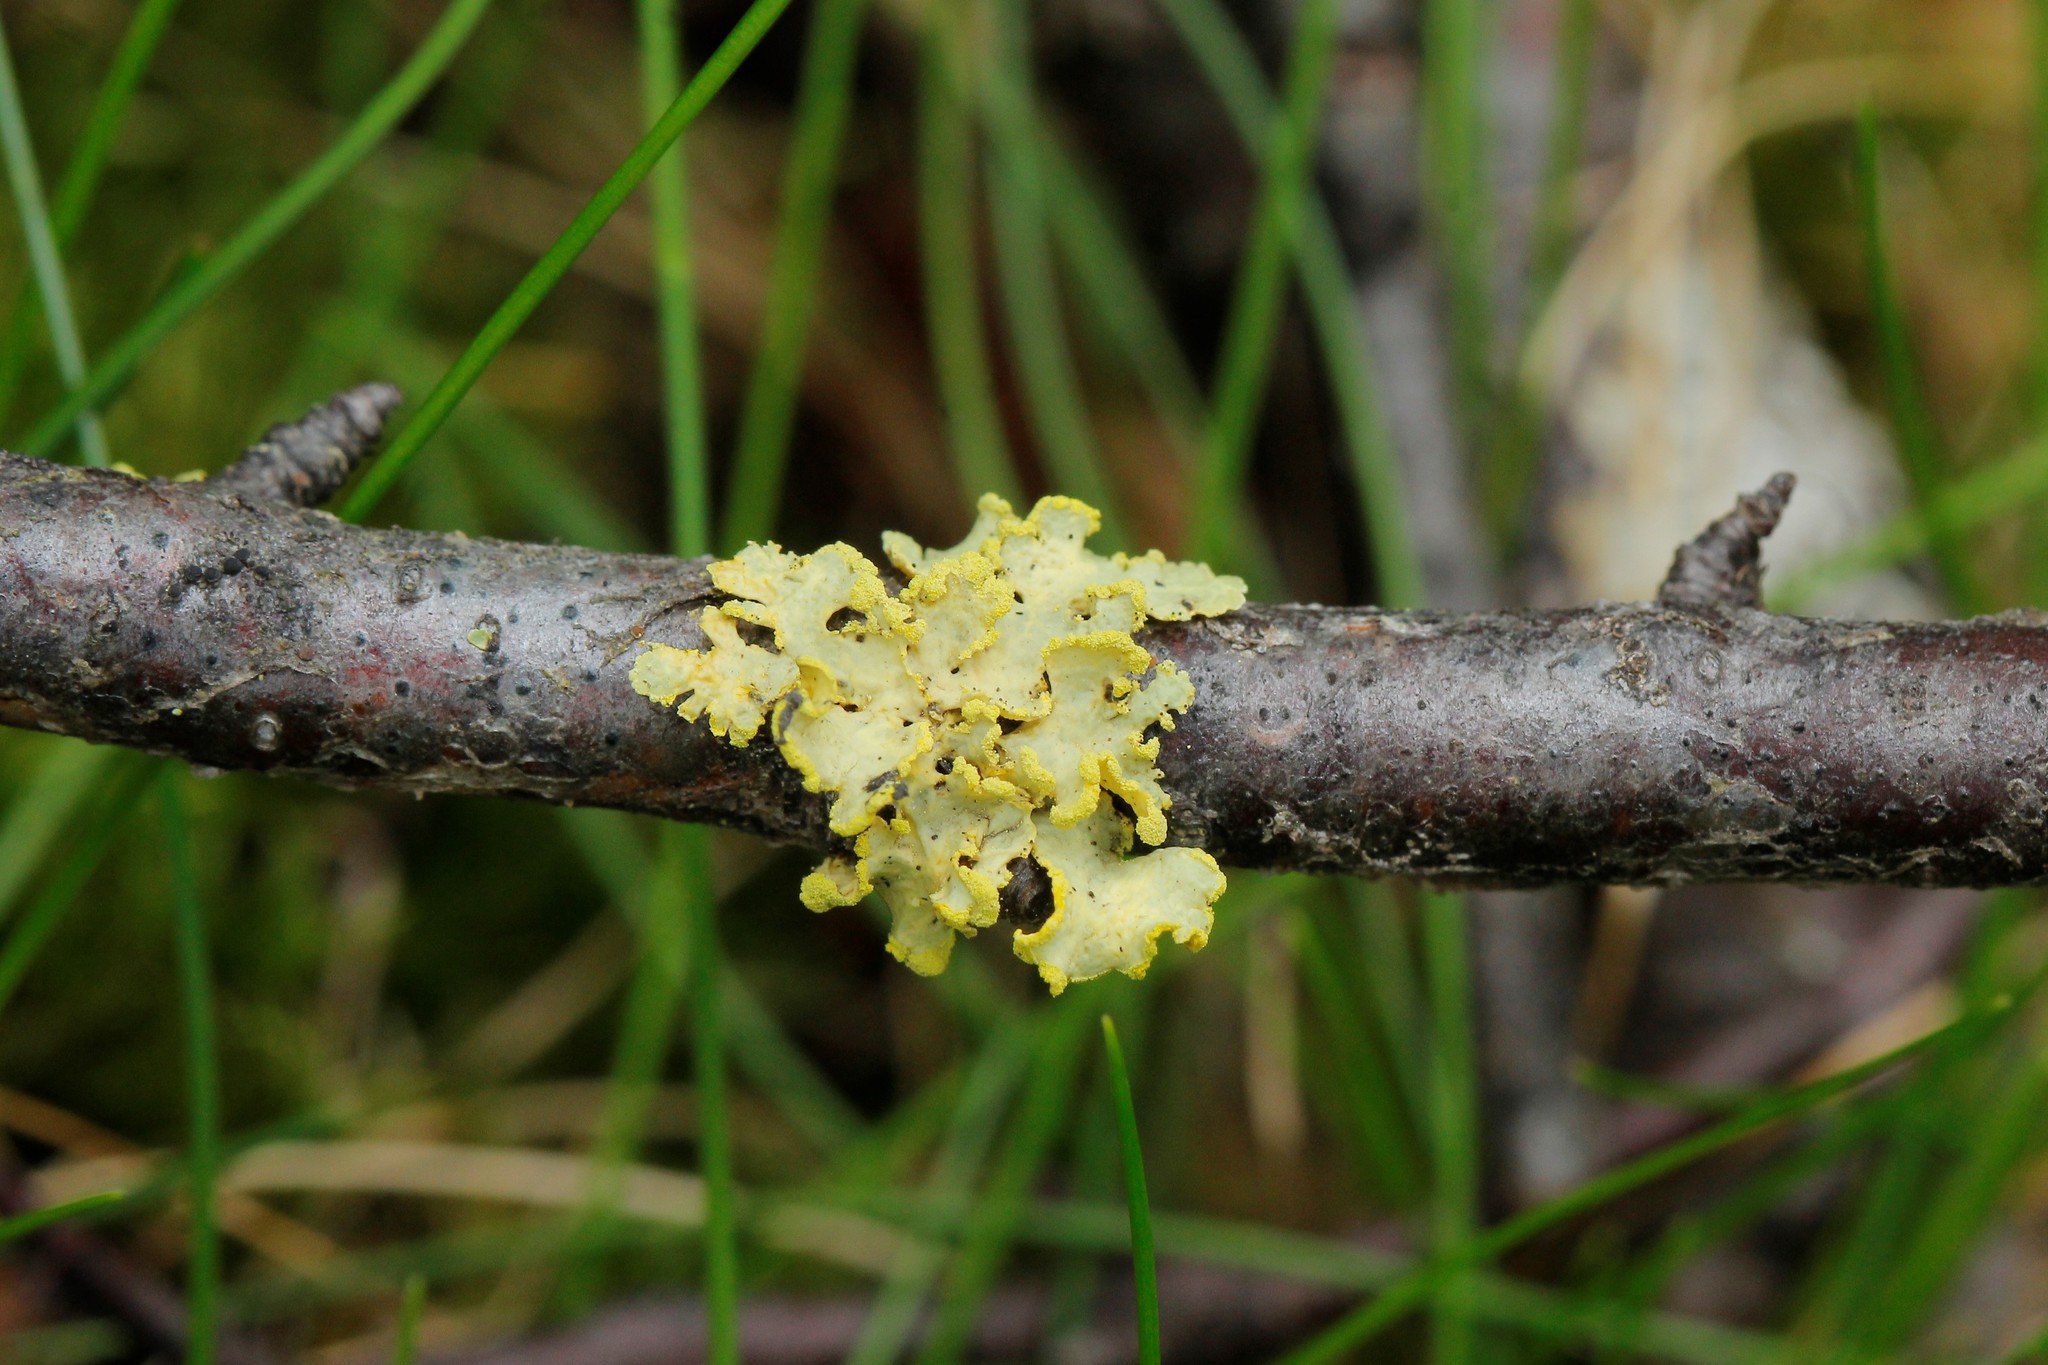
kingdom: Fungi
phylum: Ascomycota
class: Lecanoromycetes
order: Lecanorales
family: Parmeliaceae
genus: Vulpicida
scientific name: Vulpicida pinastri
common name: Powdered sunshine lichen
